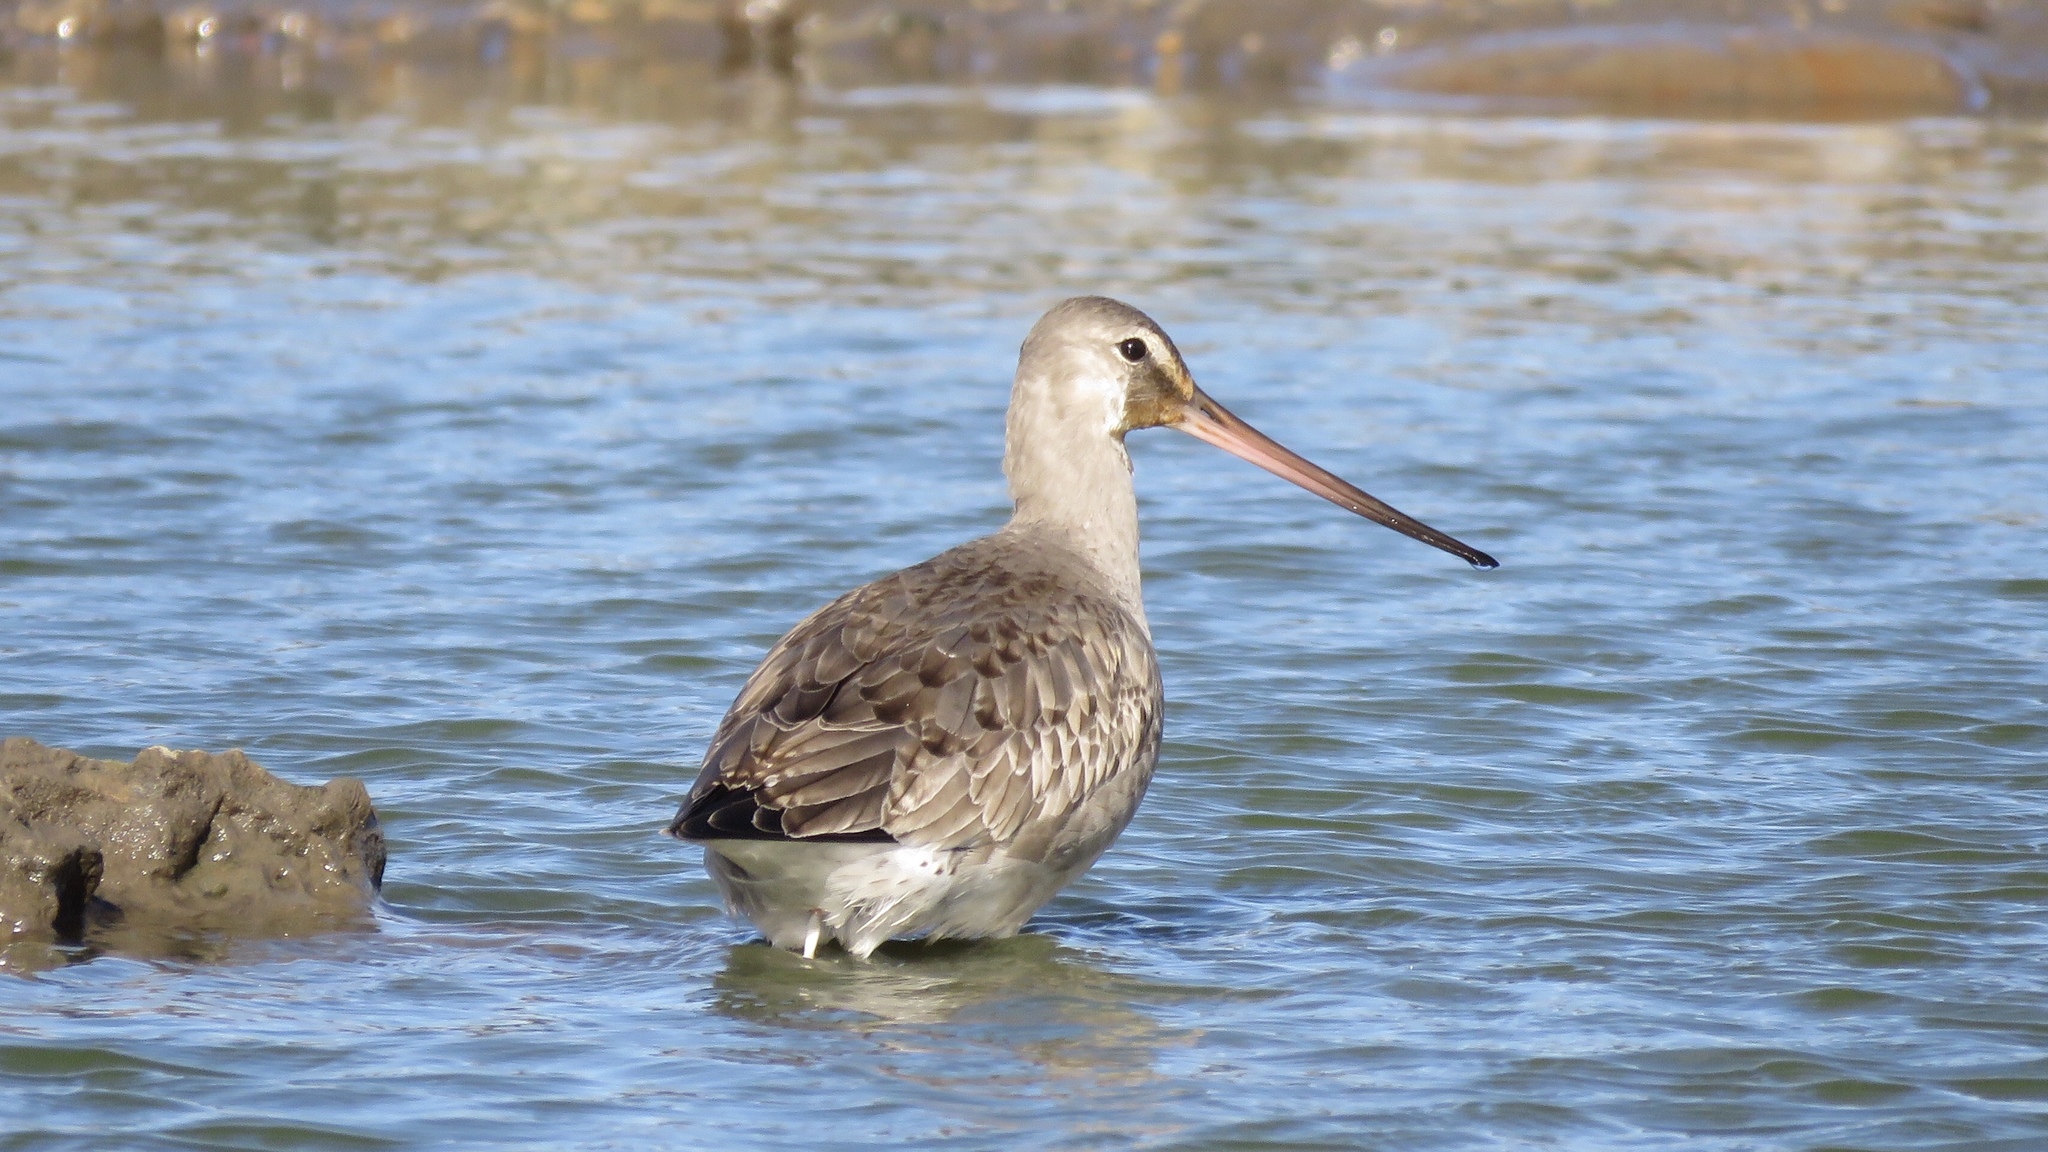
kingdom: Animalia
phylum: Chordata
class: Aves
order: Charadriiformes
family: Scolopacidae
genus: Limosa
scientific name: Limosa haemastica
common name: Hudsonian godwit
